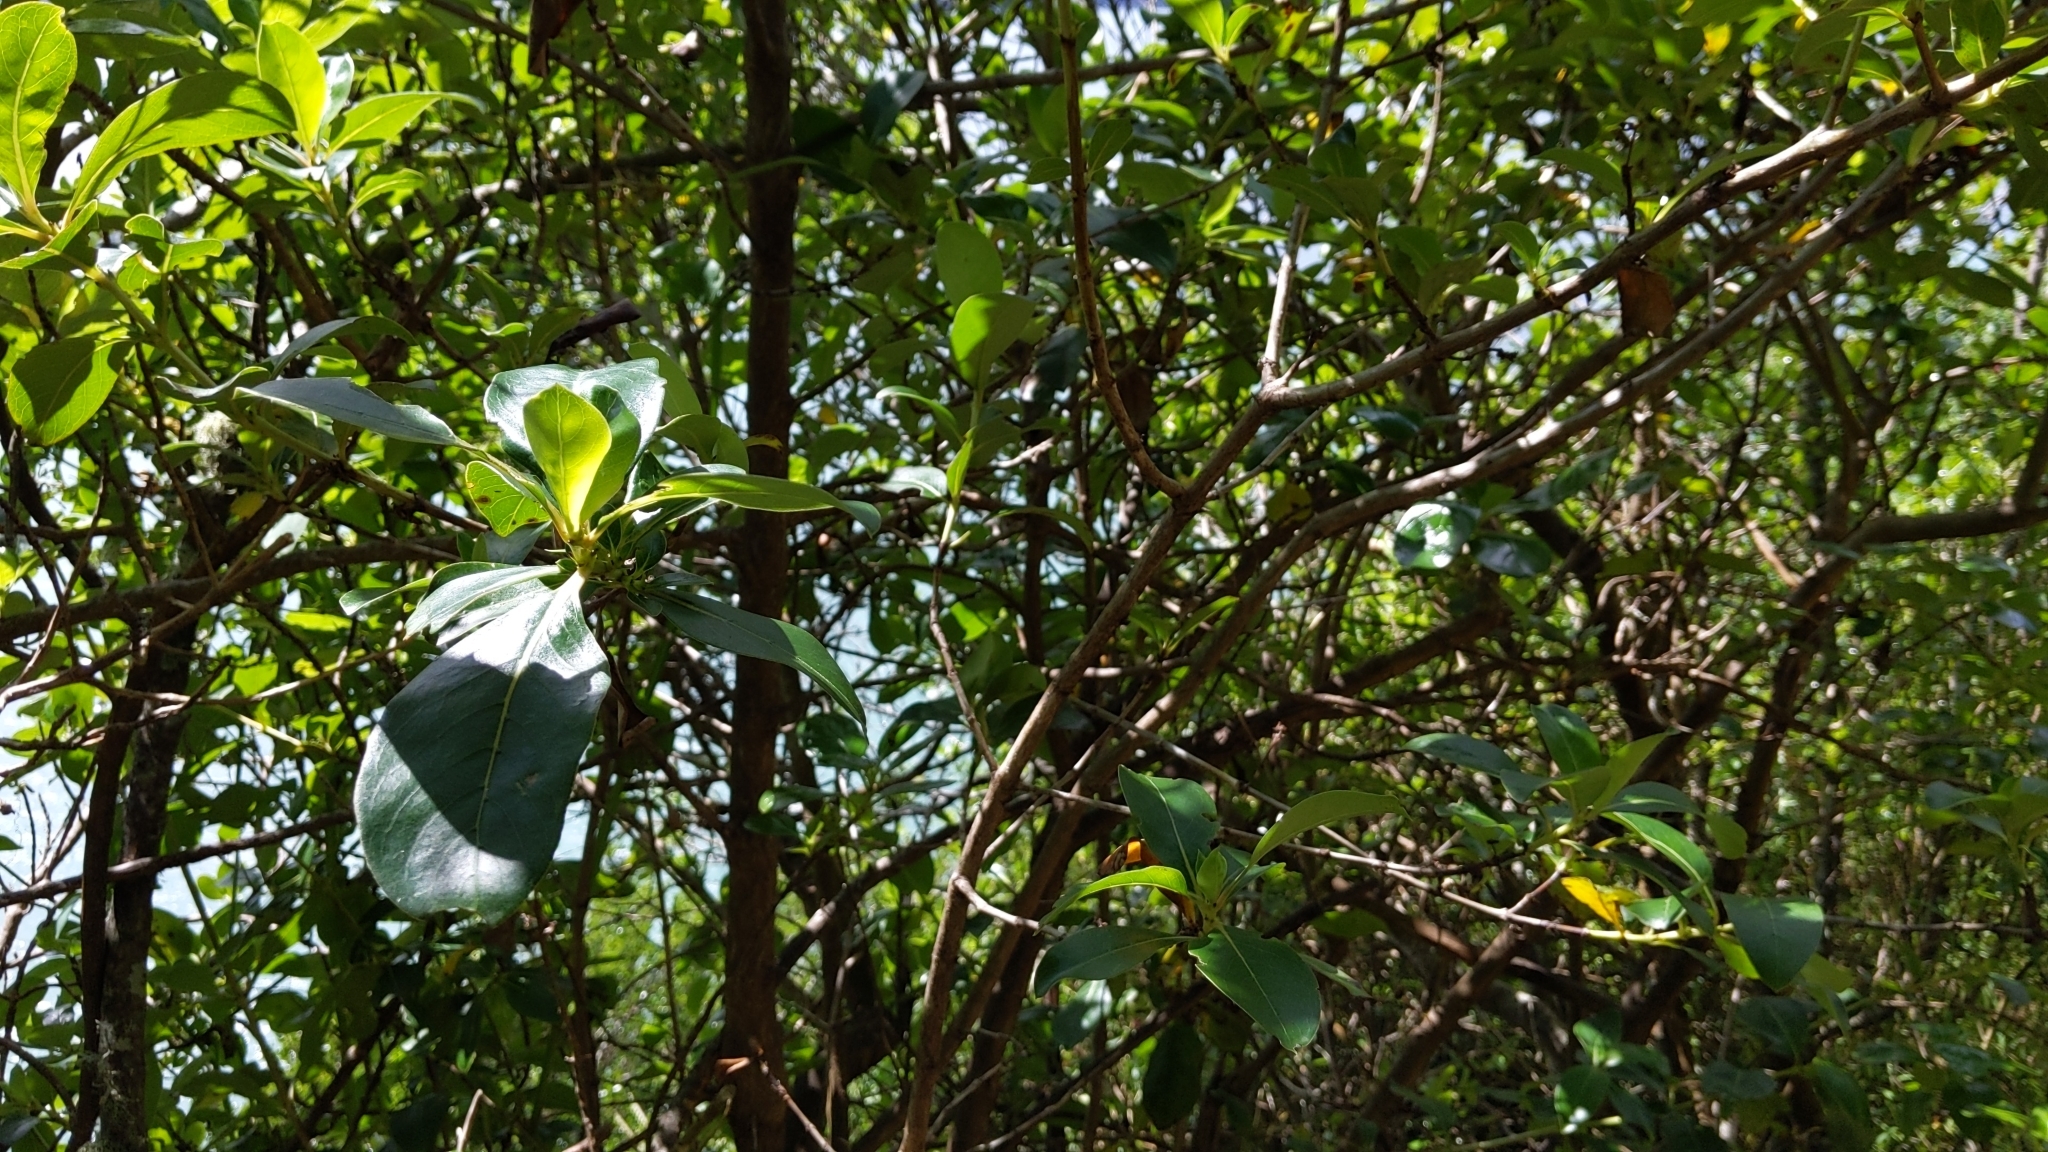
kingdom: Plantae
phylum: Tracheophyta
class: Magnoliopsida
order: Gentianales
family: Rubiaceae
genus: Coprosma
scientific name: Coprosma robusta
